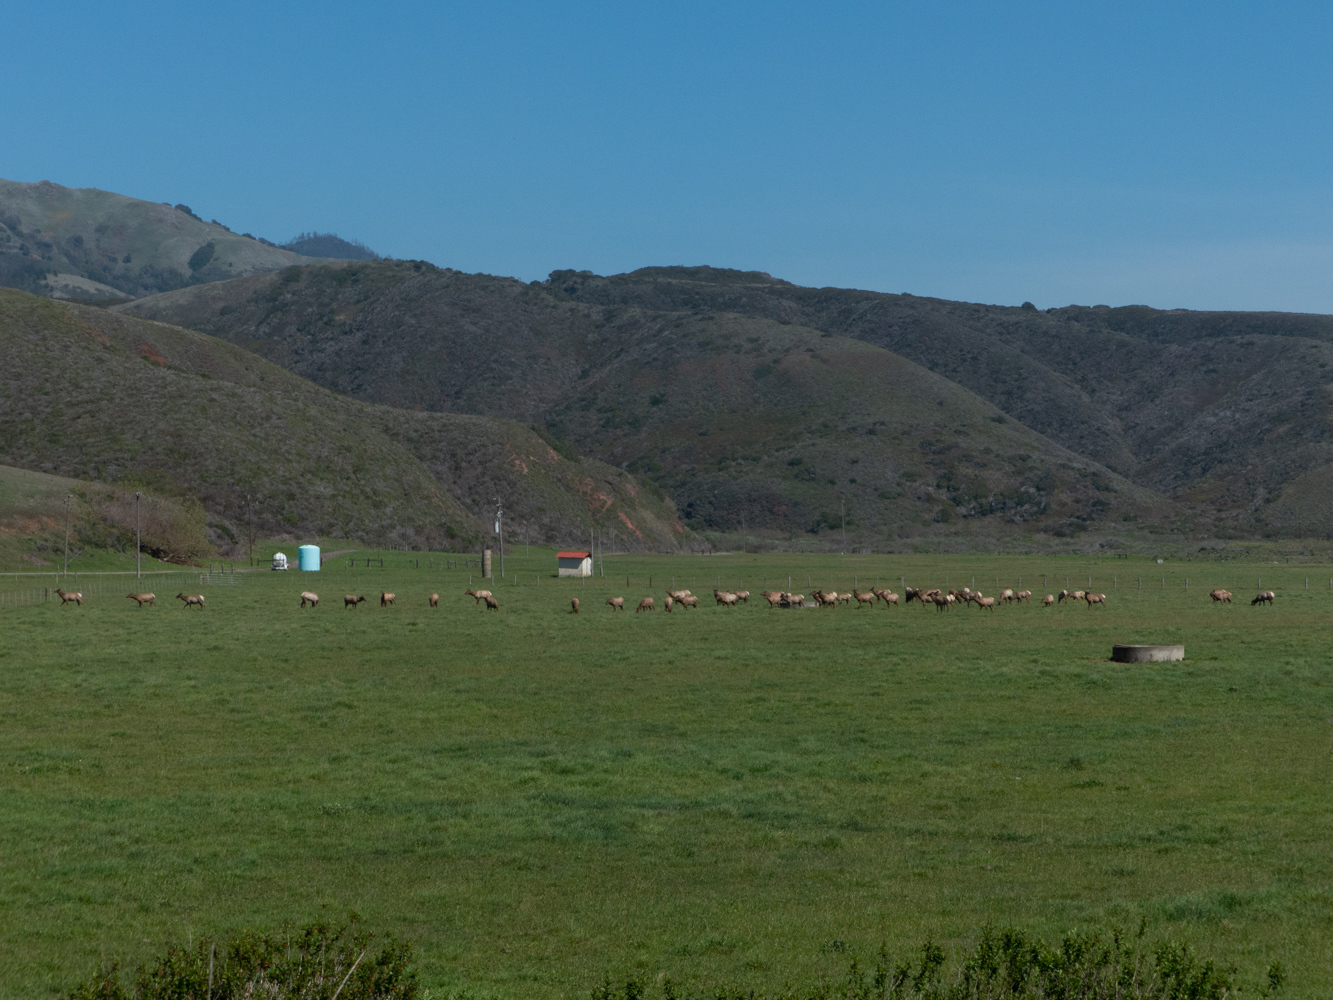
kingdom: Animalia
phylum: Chordata
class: Mammalia
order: Artiodactyla
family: Cervidae
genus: Cervus
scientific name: Cervus elaphus
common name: Red deer
